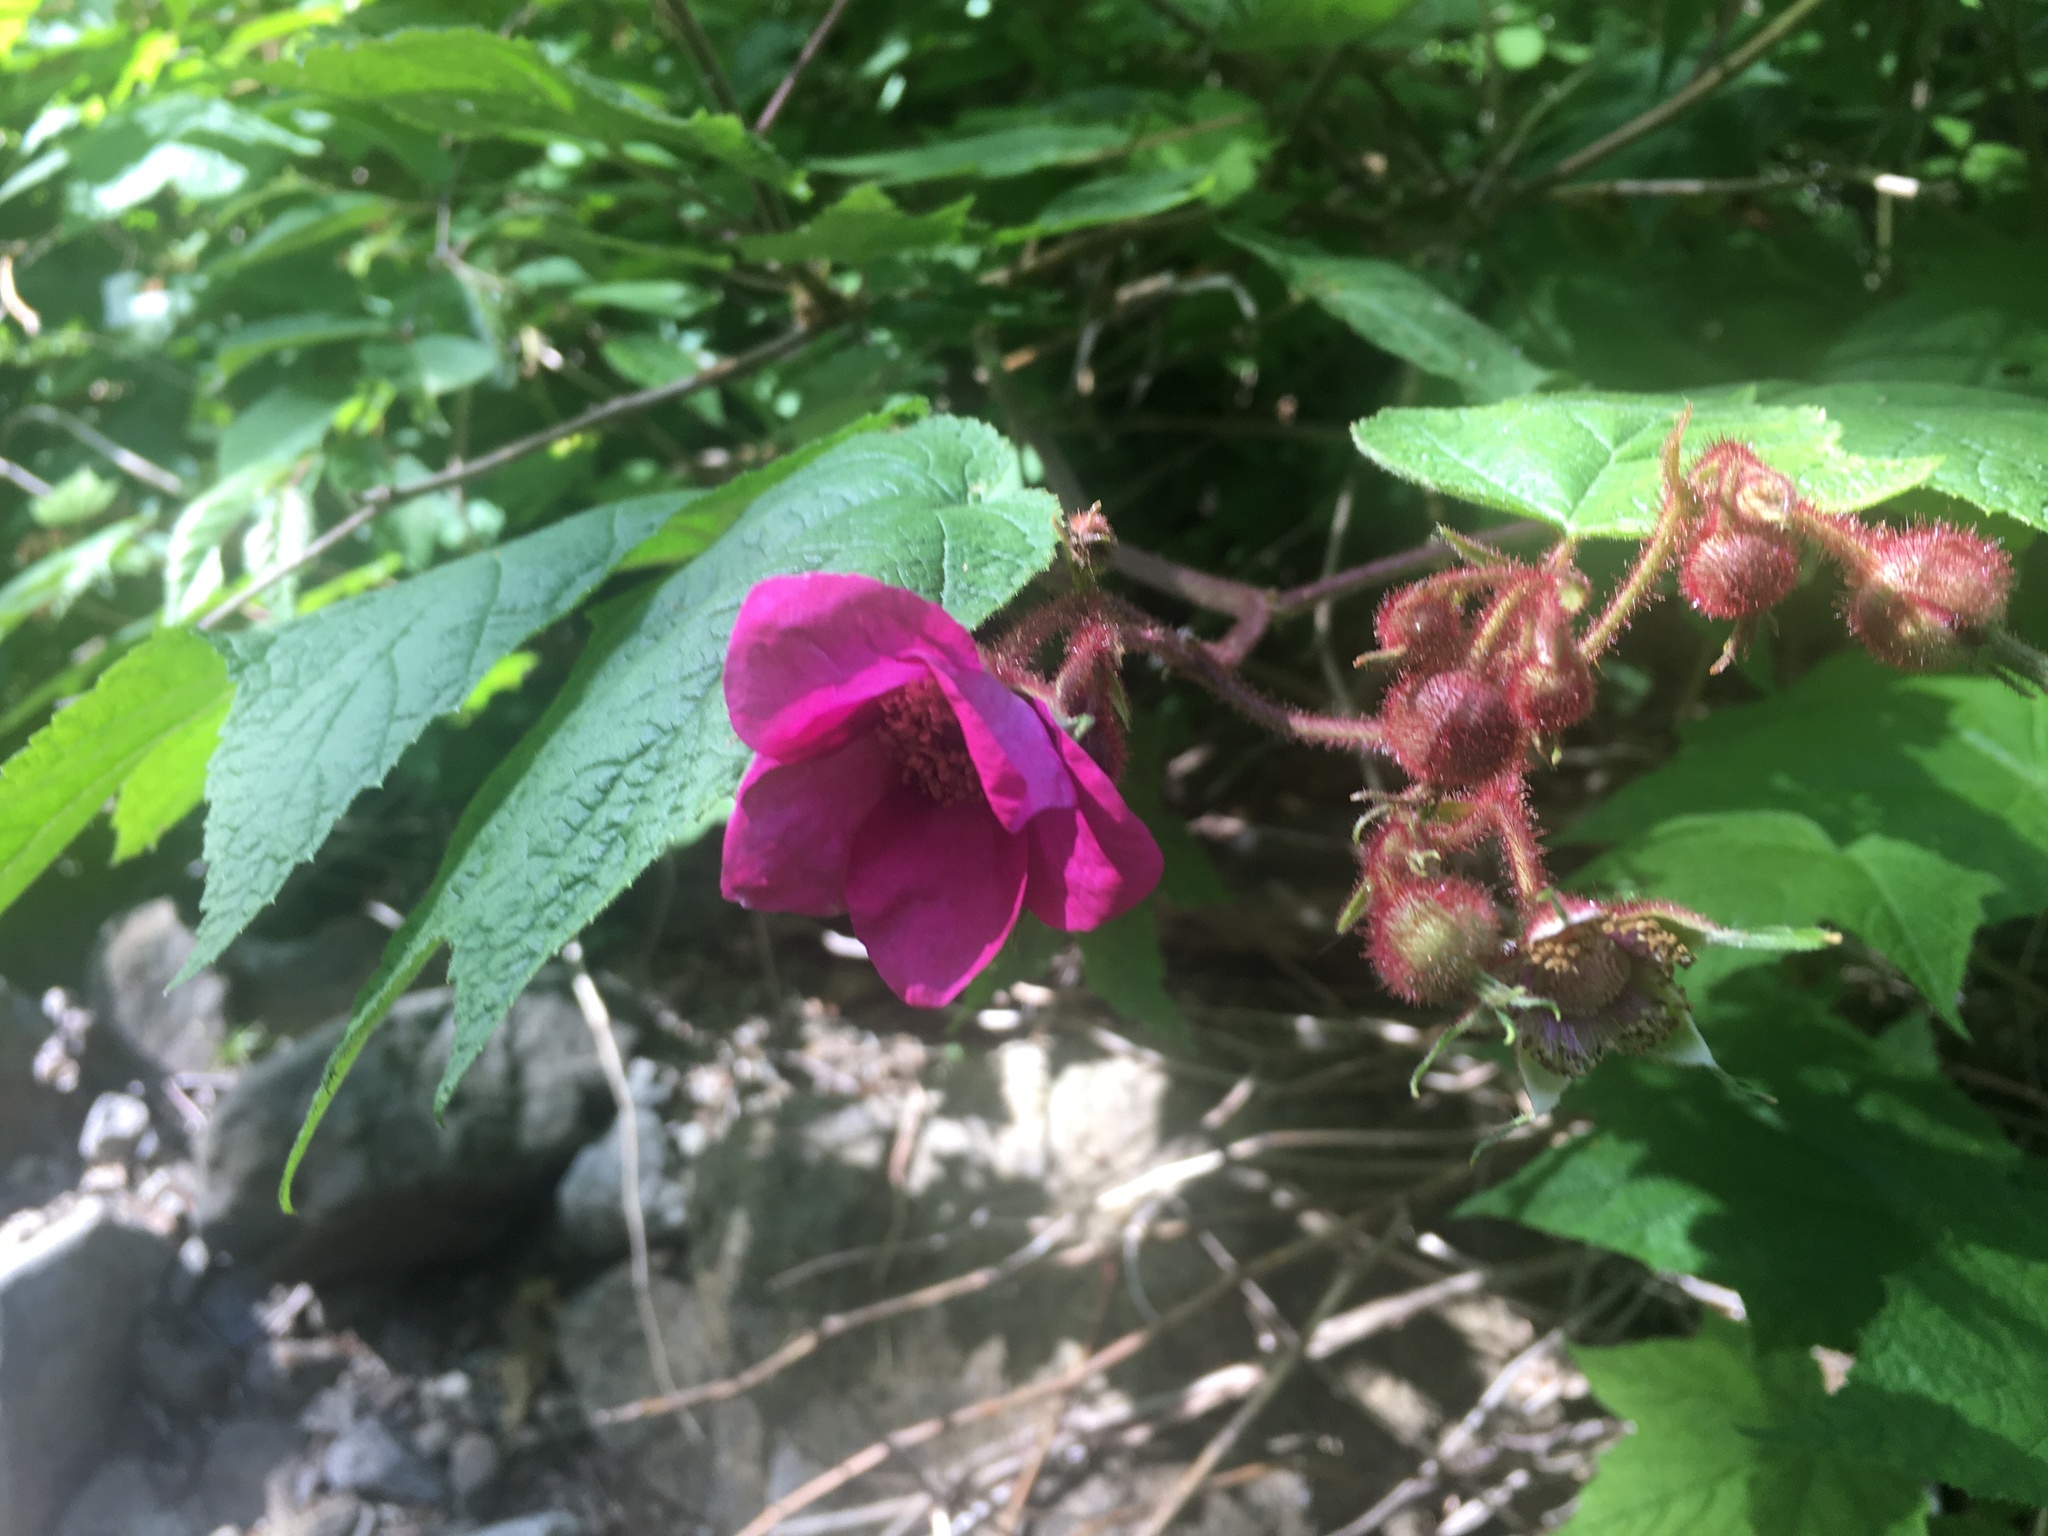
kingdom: Plantae
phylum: Tracheophyta
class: Magnoliopsida
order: Rosales
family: Rosaceae
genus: Rubus
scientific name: Rubus odoratus
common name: Purple-flowered raspberry
